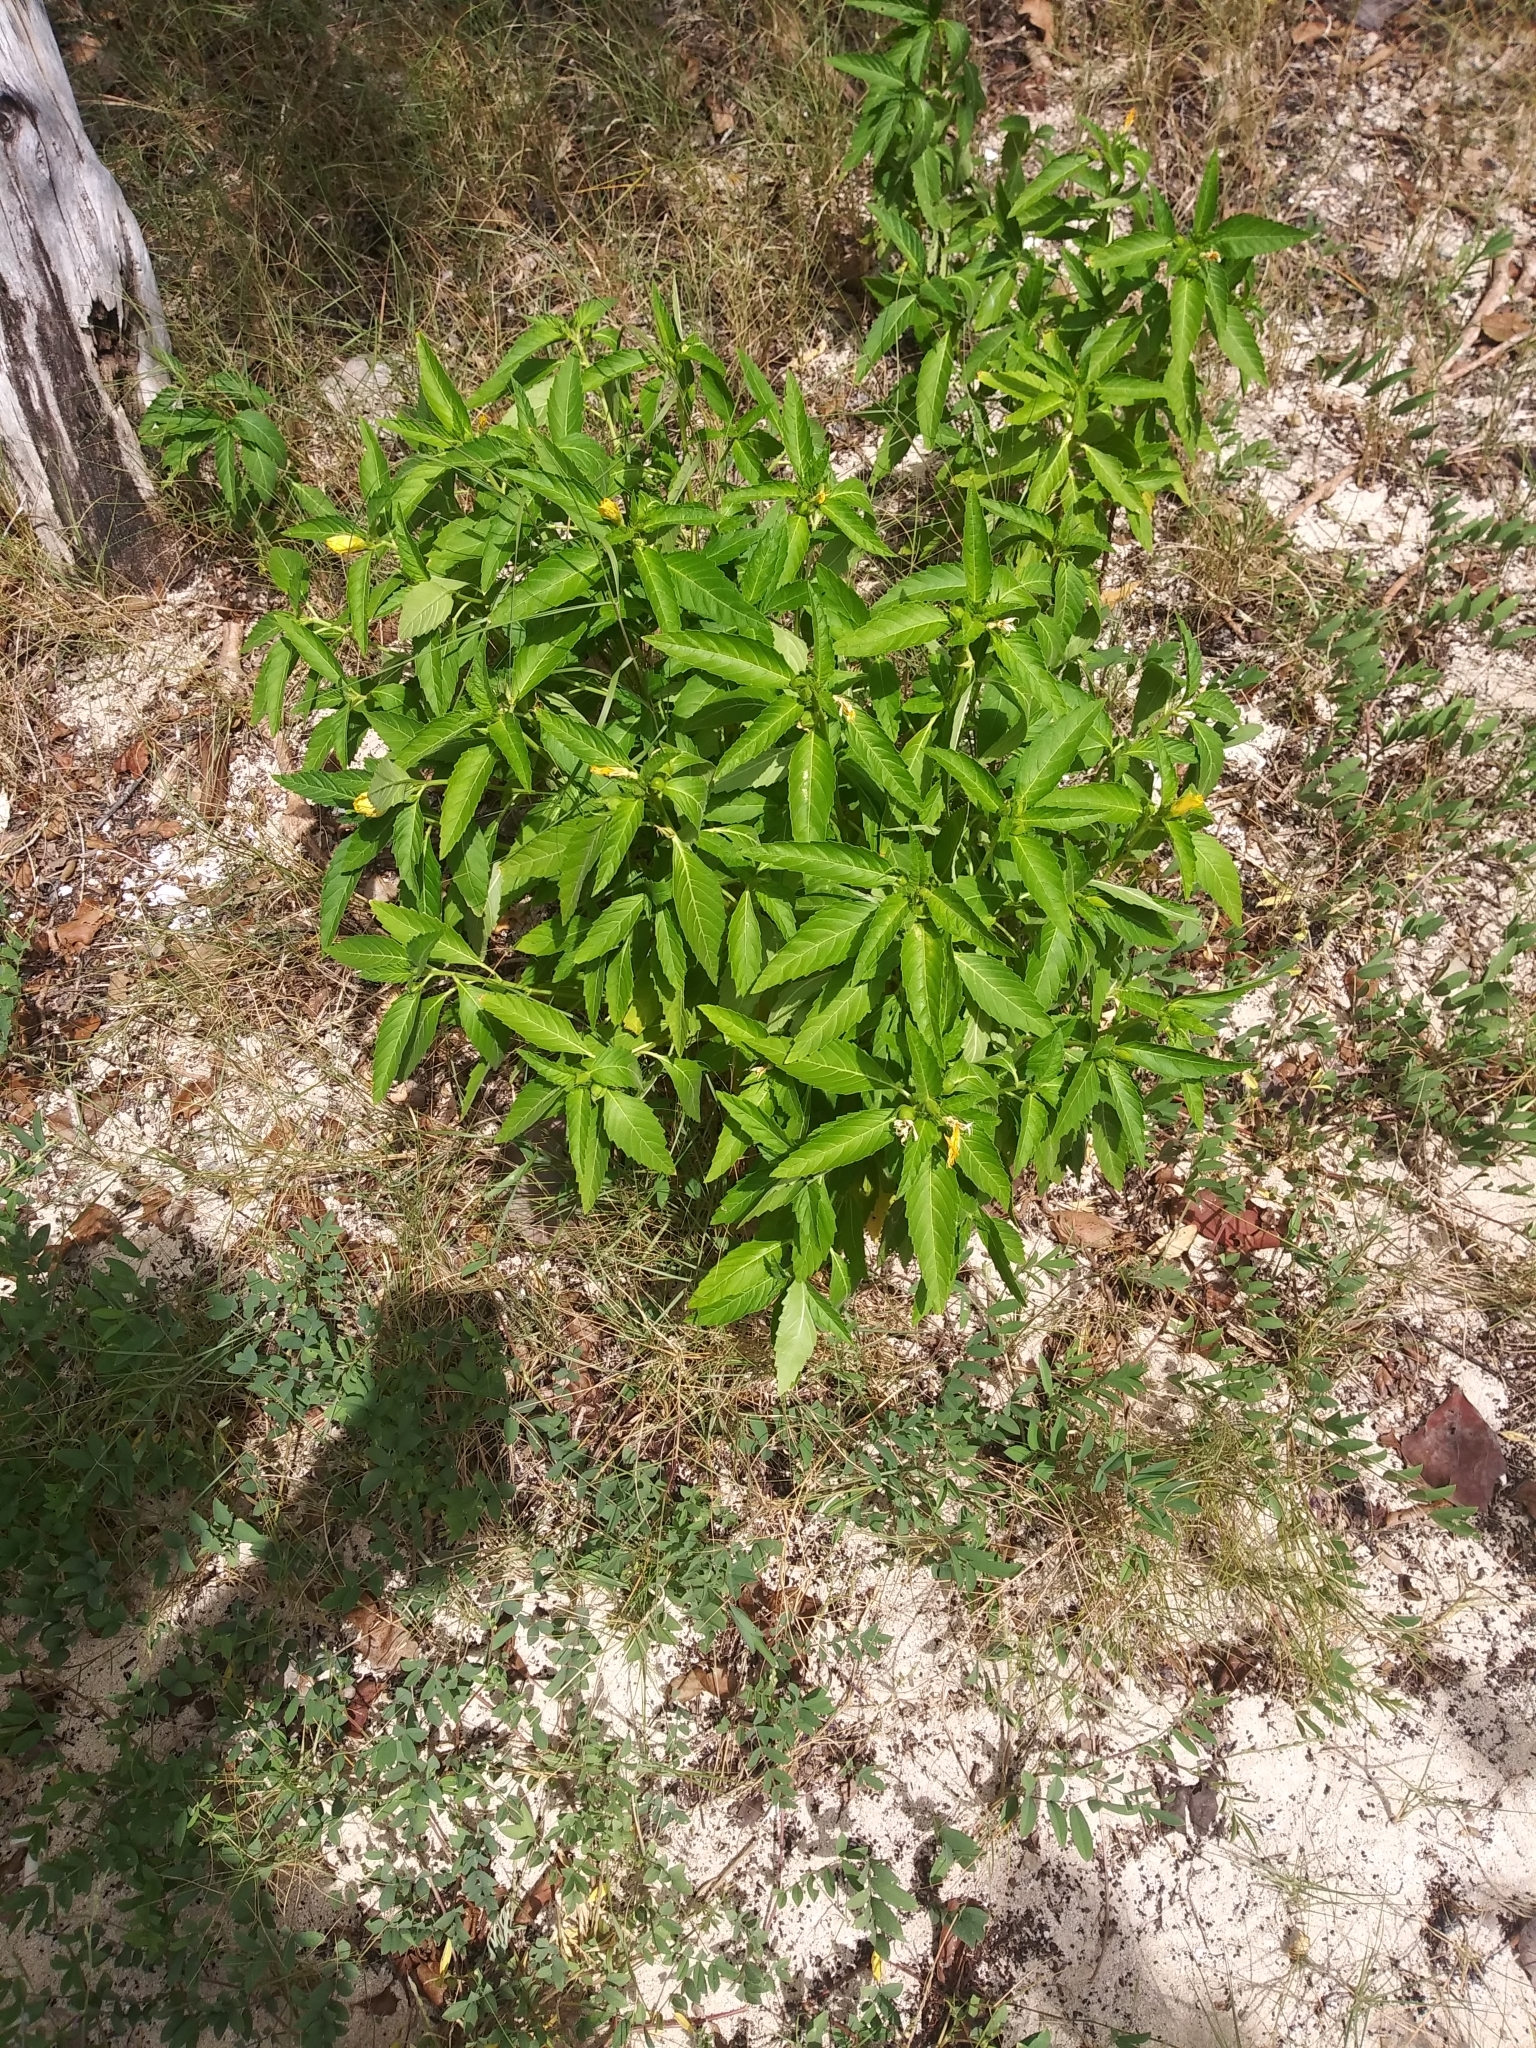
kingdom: Plantae
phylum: Tracheophyta
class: Magnoliopsida
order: Malpighiales
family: Turneraceae
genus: Turnera
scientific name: Turnera ulmifolia
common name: Ramgoat dashalong
